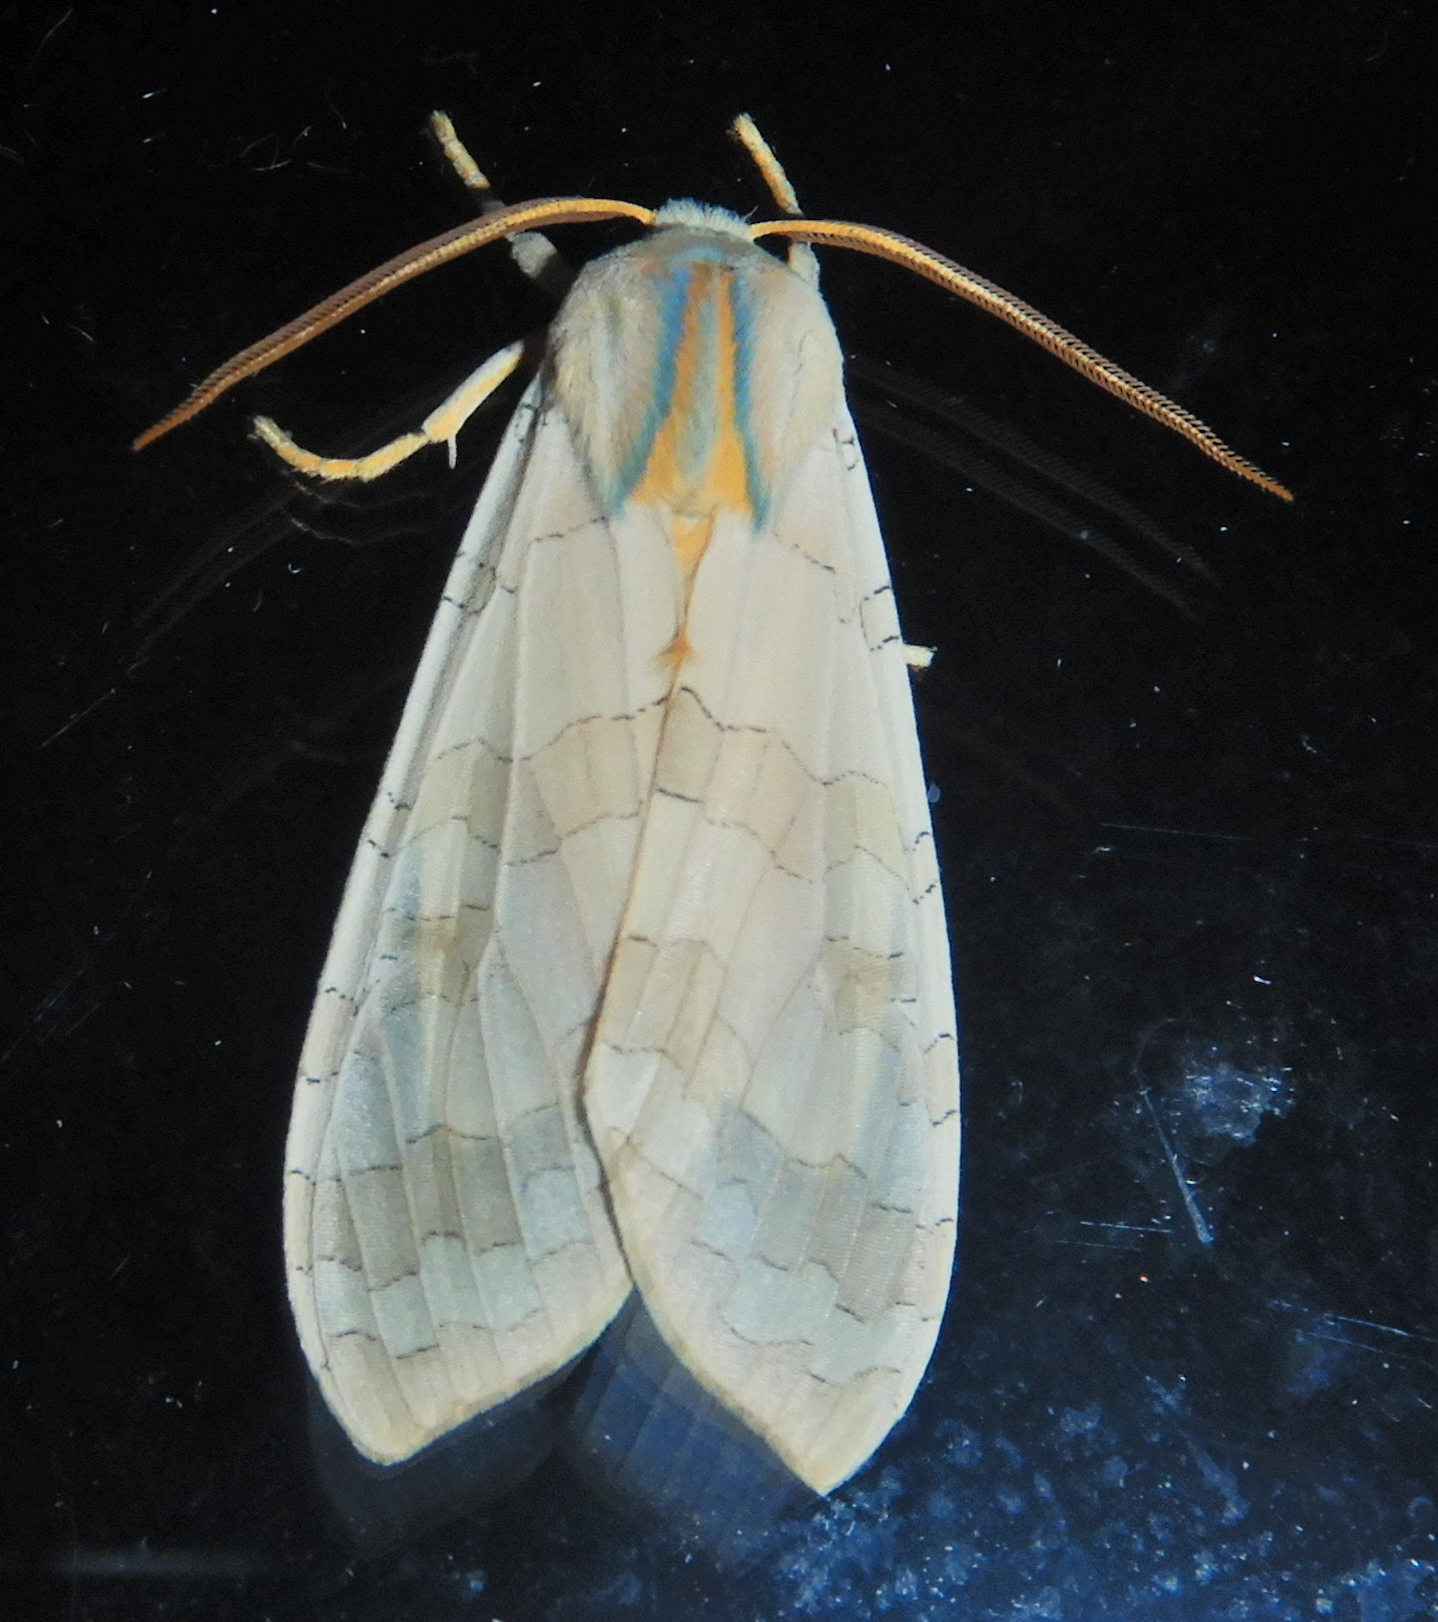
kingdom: Animalia
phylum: Arthropoda
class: Insecta
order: Lepidoptera
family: Erebidae
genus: Halysidota
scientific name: Halysidota tessellaris
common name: Banded tussock moth
